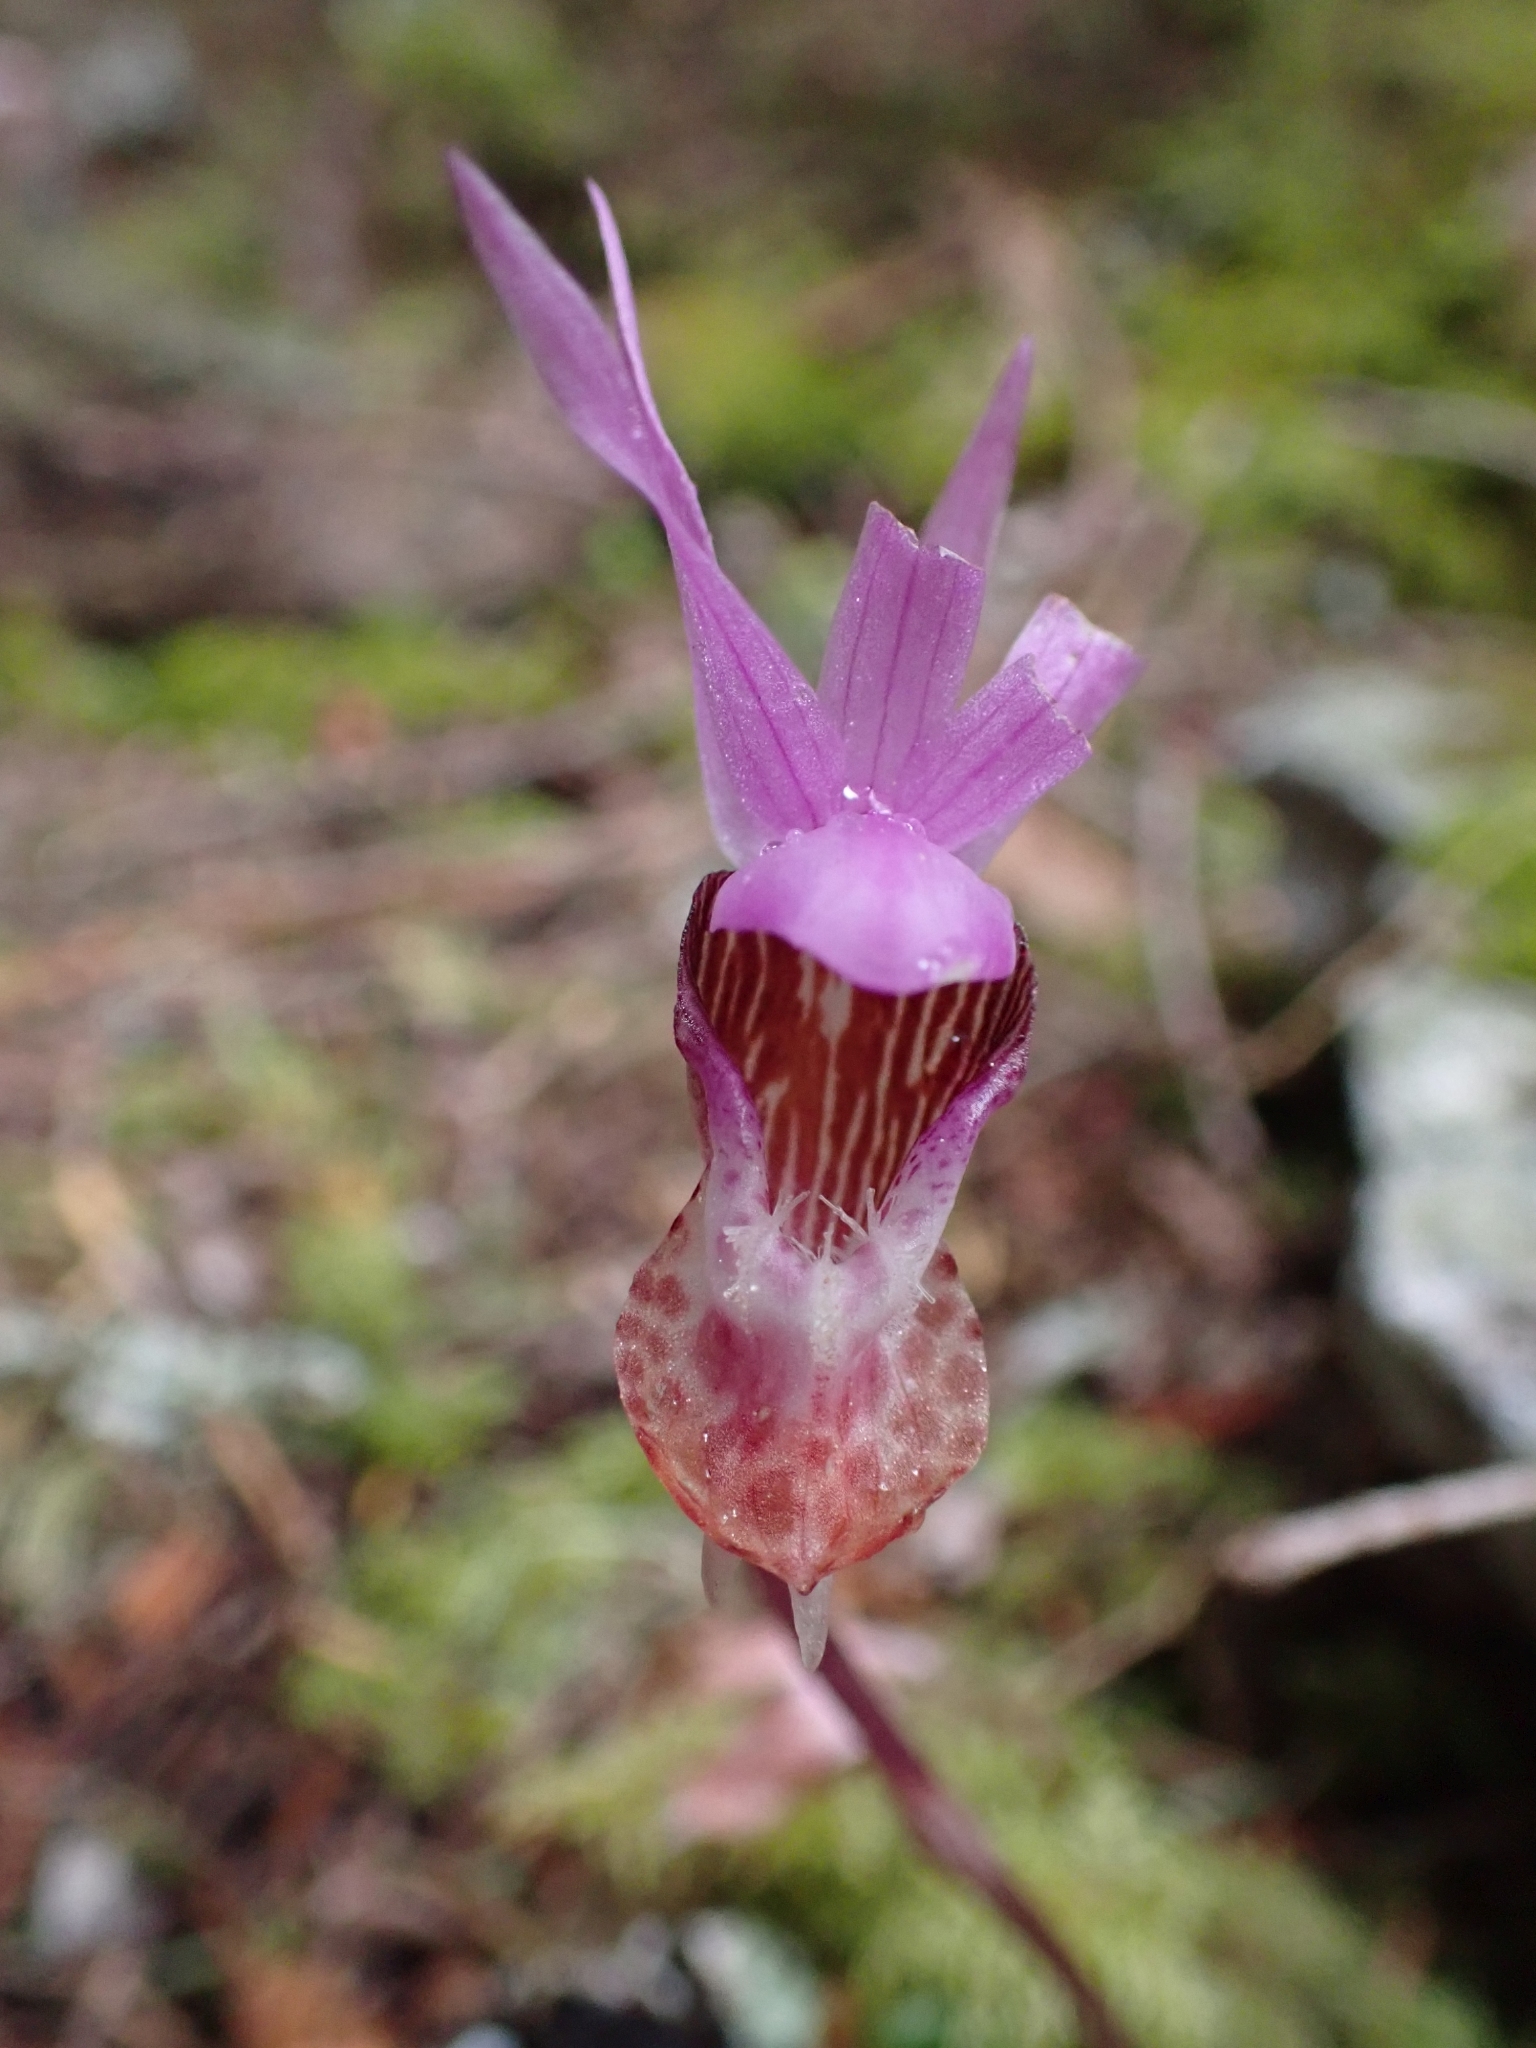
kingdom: Plantae
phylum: Tracheophyta
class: Liliopsida
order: Asparagales
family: Orchidaceae
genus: Calypso
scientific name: Calypso bulbosa
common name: Calypso
